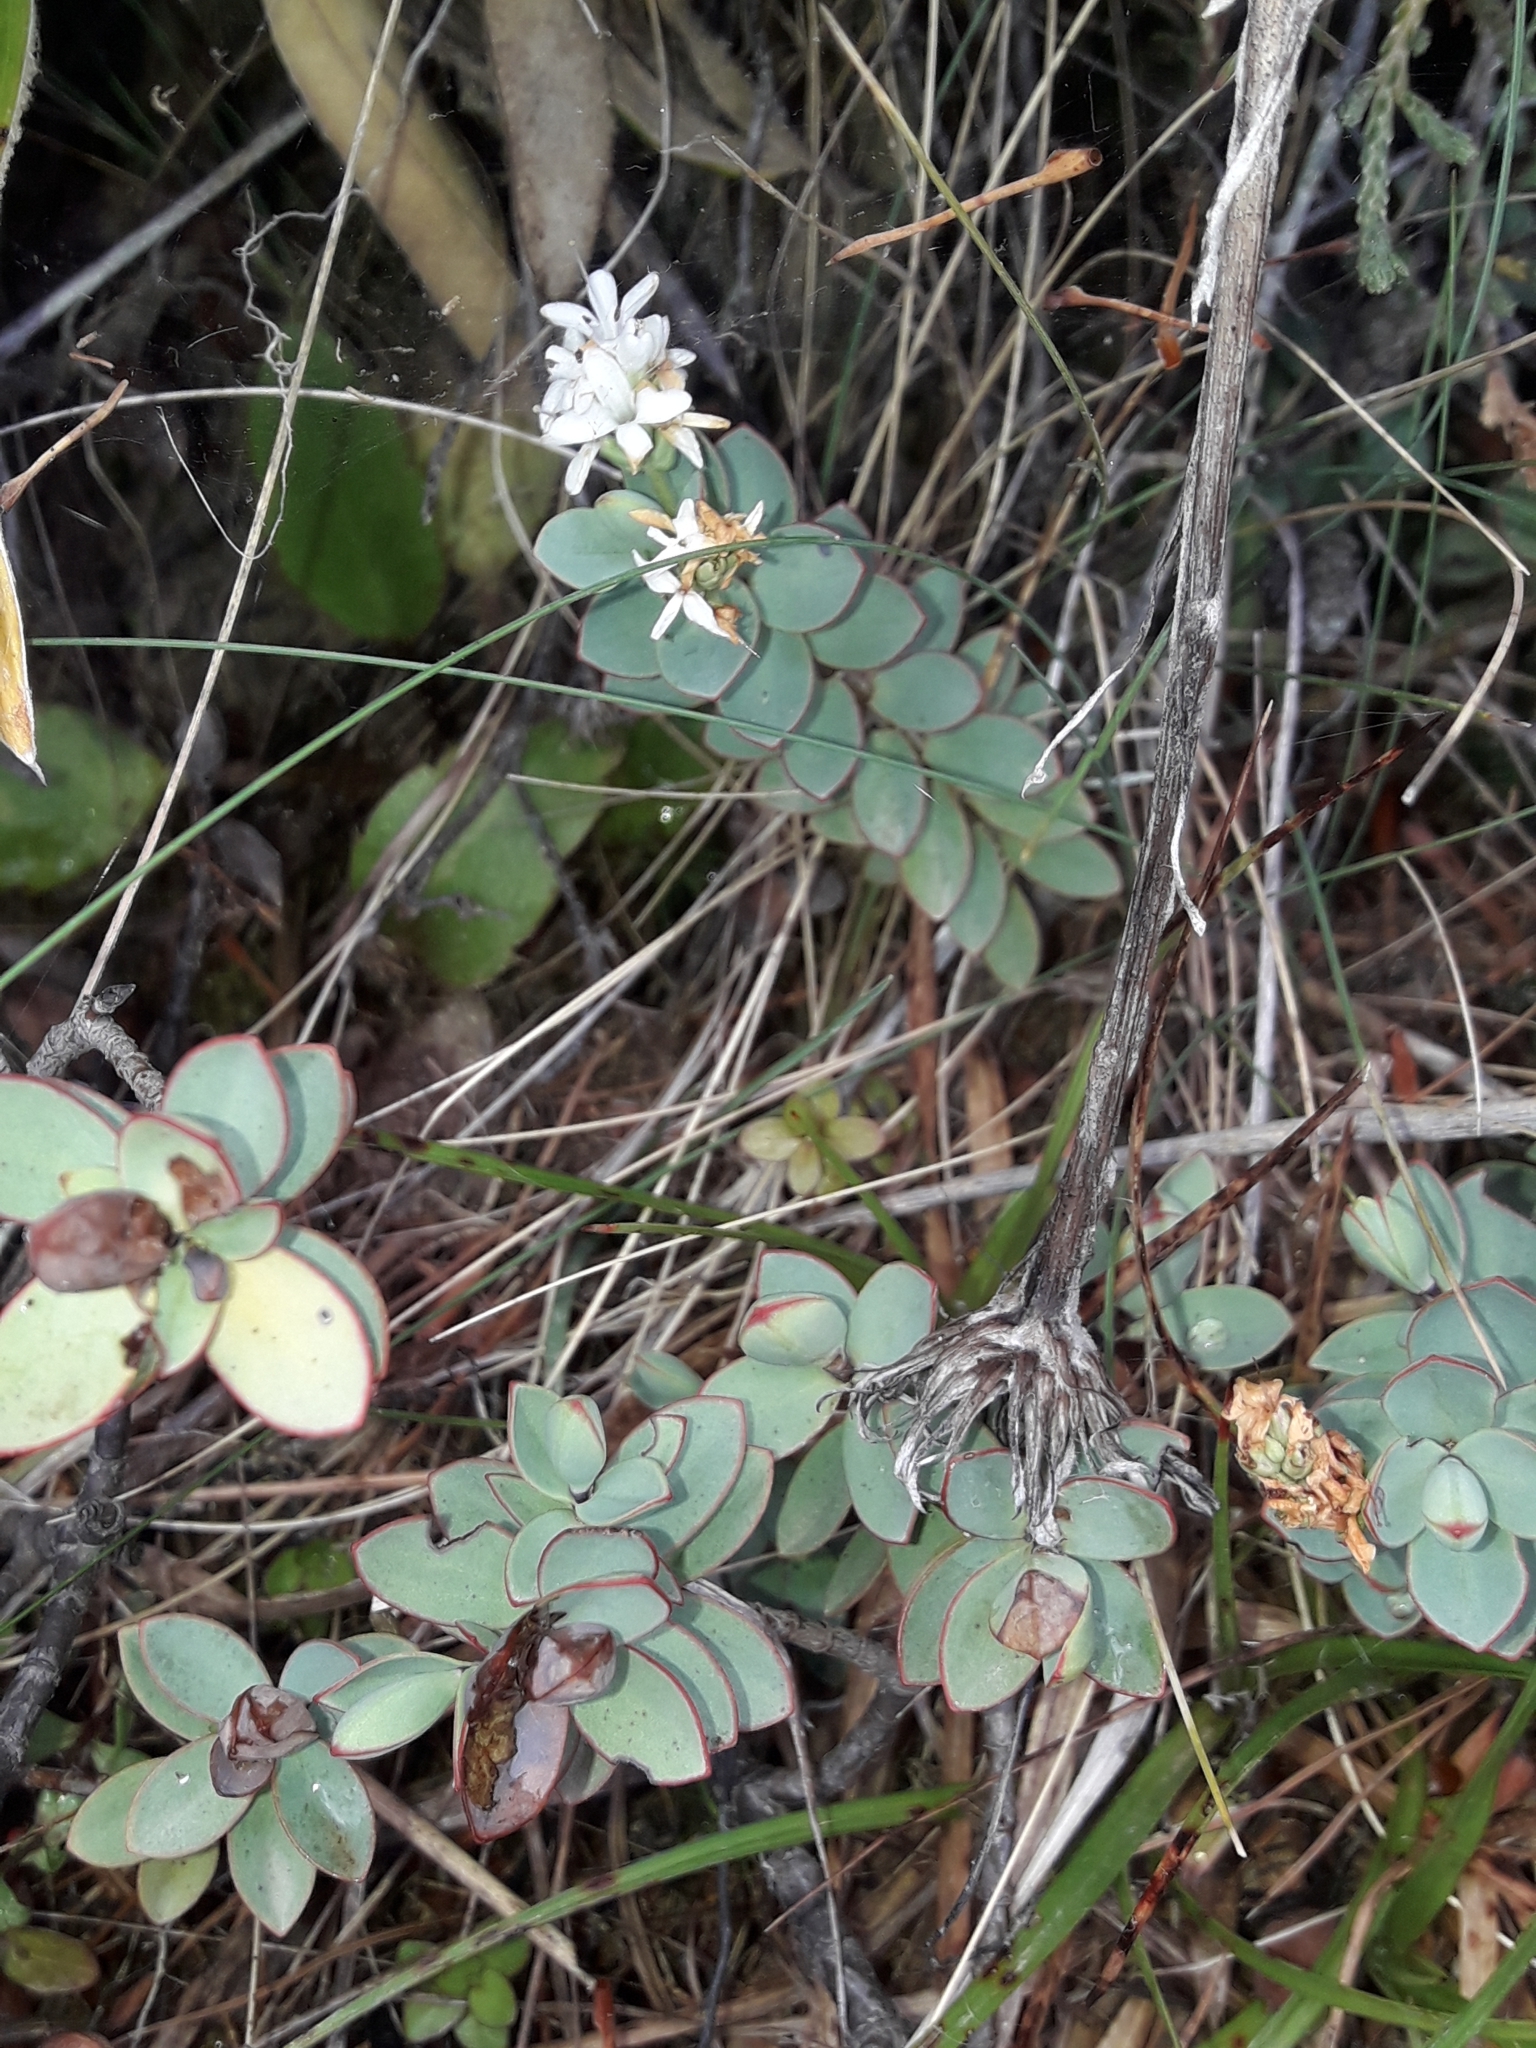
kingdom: Plantae
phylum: Tracheophyta
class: Magnoliopsida
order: Lamiales
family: Plantaginaceae
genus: Veronica
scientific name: Veronica pinguifolia
